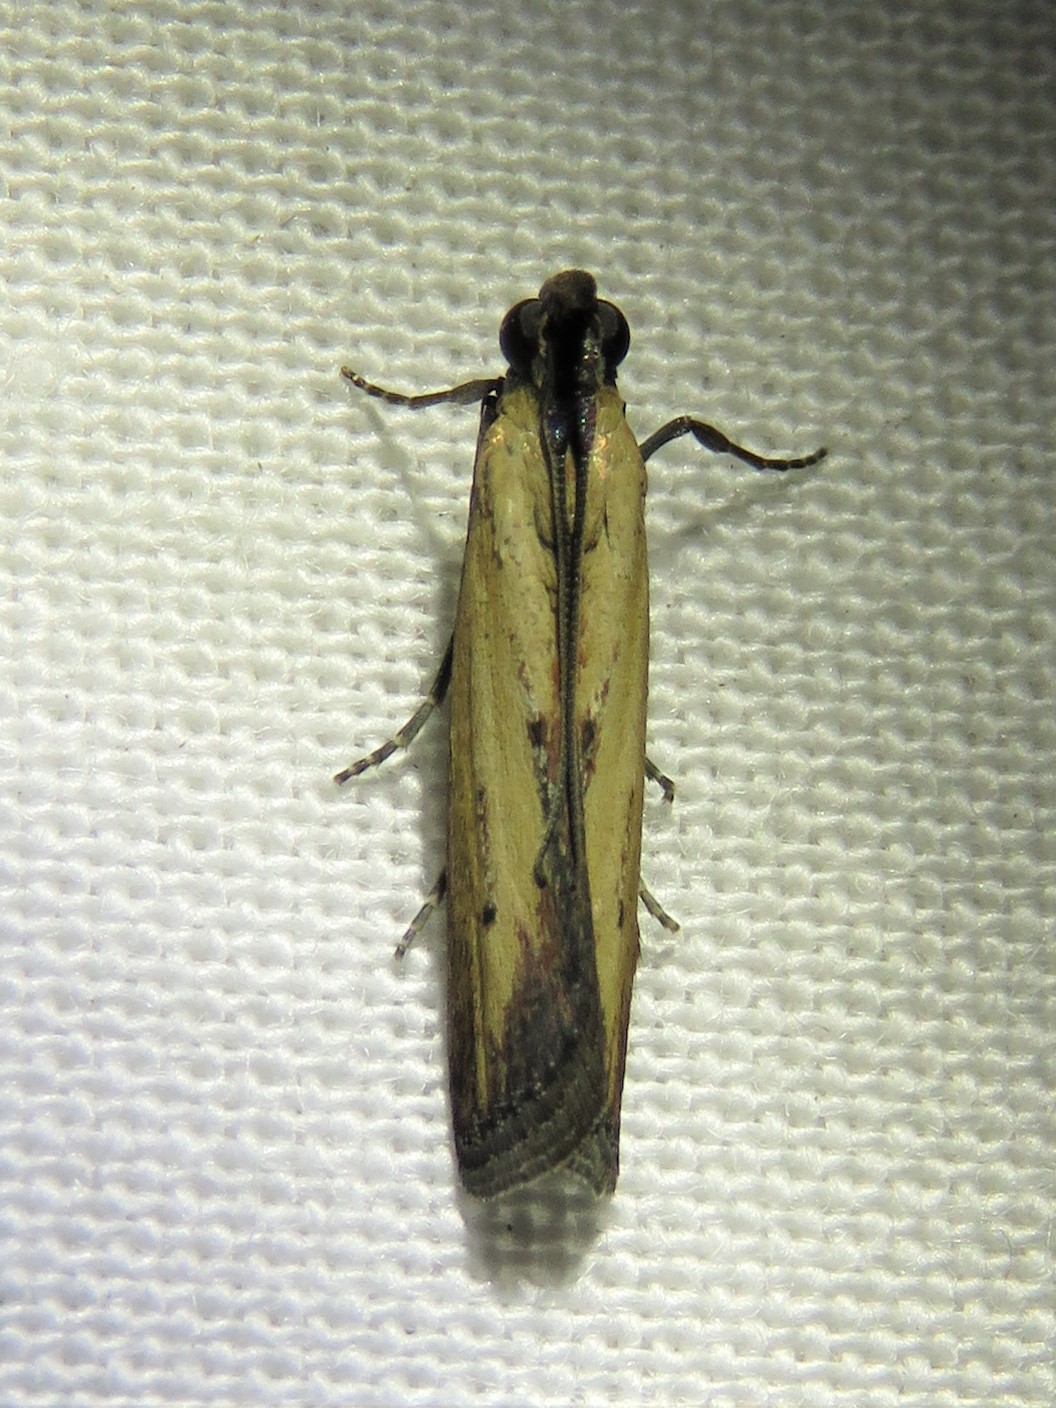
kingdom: Animalia
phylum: Arthropoda
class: Insecta
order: Lepidoptera
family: Pyralidae
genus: Elasmopalpus
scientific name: Elasmopalpus lignosella
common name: Lesser cornstalk borer
